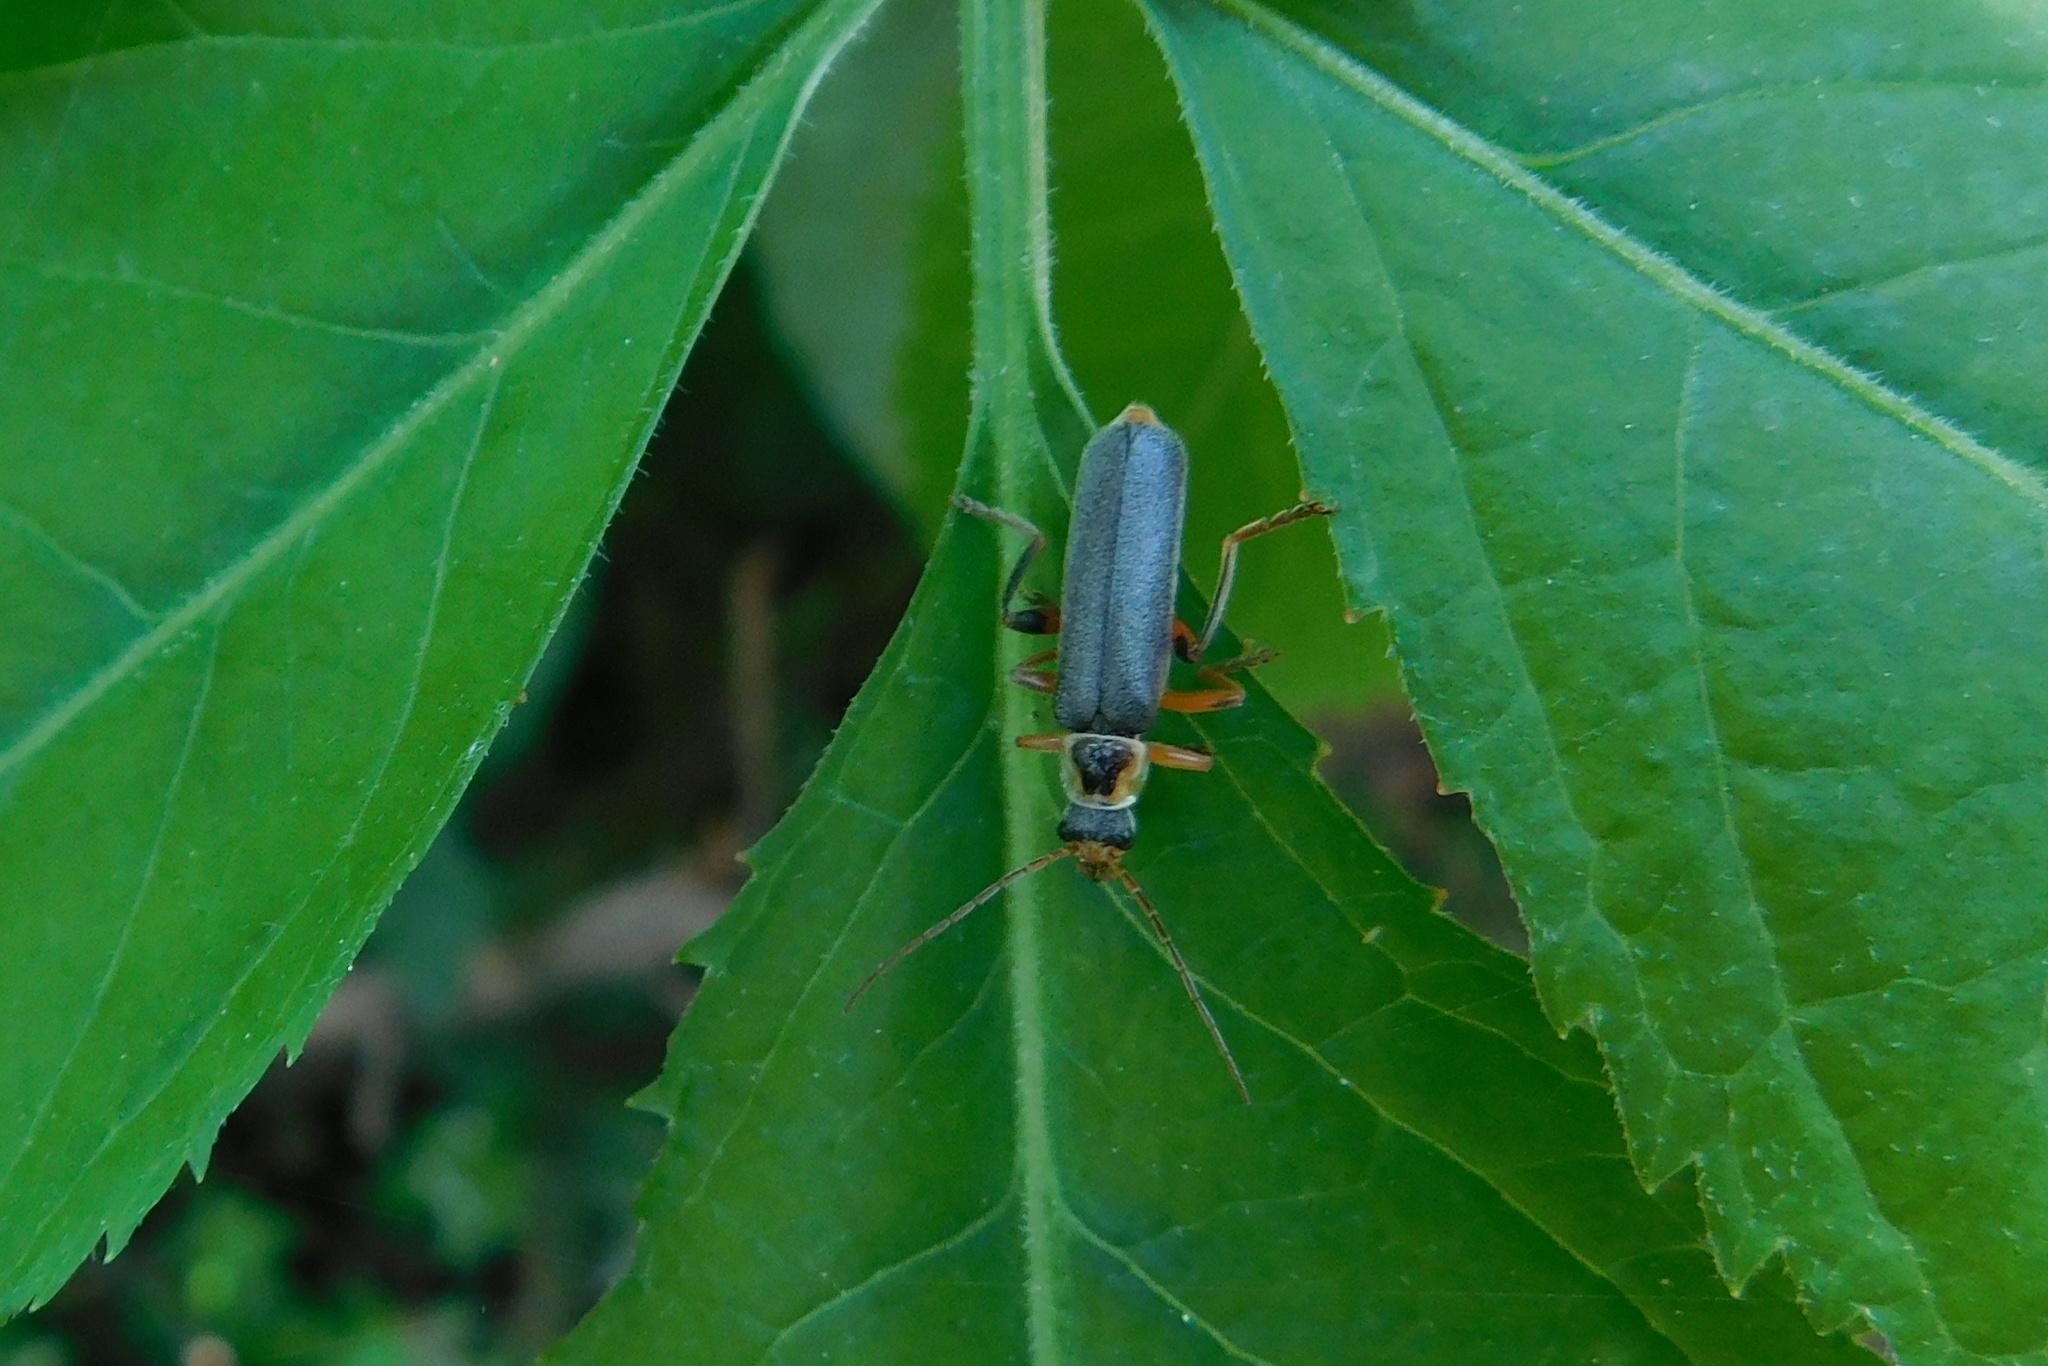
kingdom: Animalia
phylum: Arthropoda
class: Insecta
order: Coleoptera
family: Cantharidae
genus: Cantharis
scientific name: Cantharis nigricans
